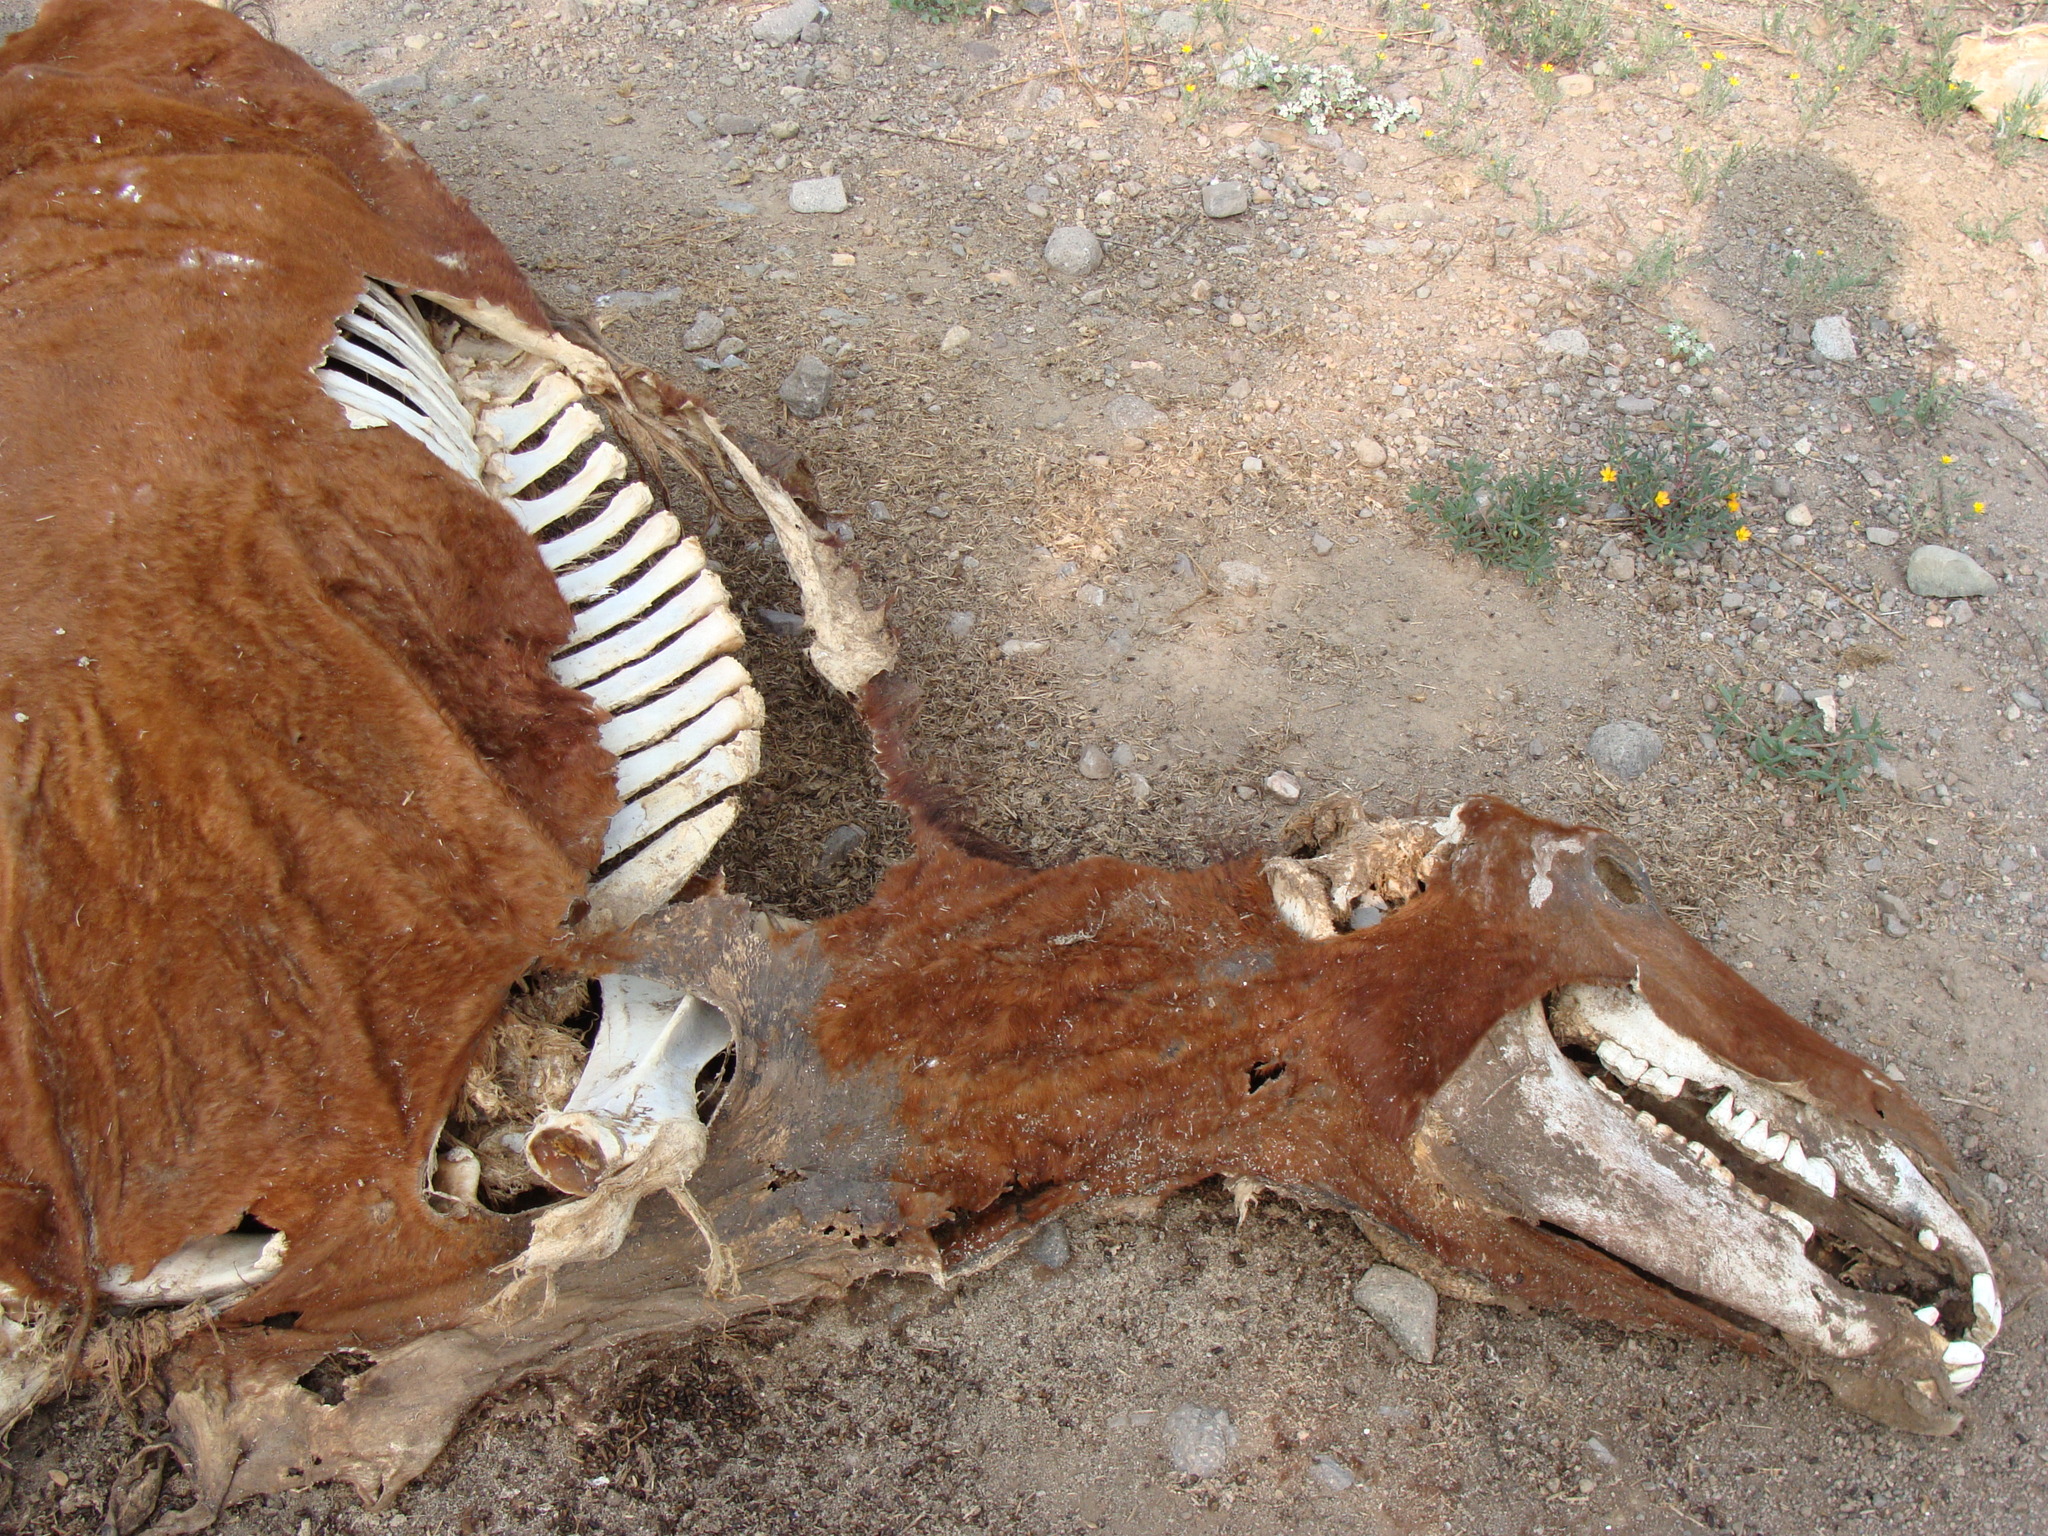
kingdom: Animalia
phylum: Chordata
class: Mammalia
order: Artiodactyla
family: Bovidae
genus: Bos
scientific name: Bos taurus
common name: Domesticated cattle
